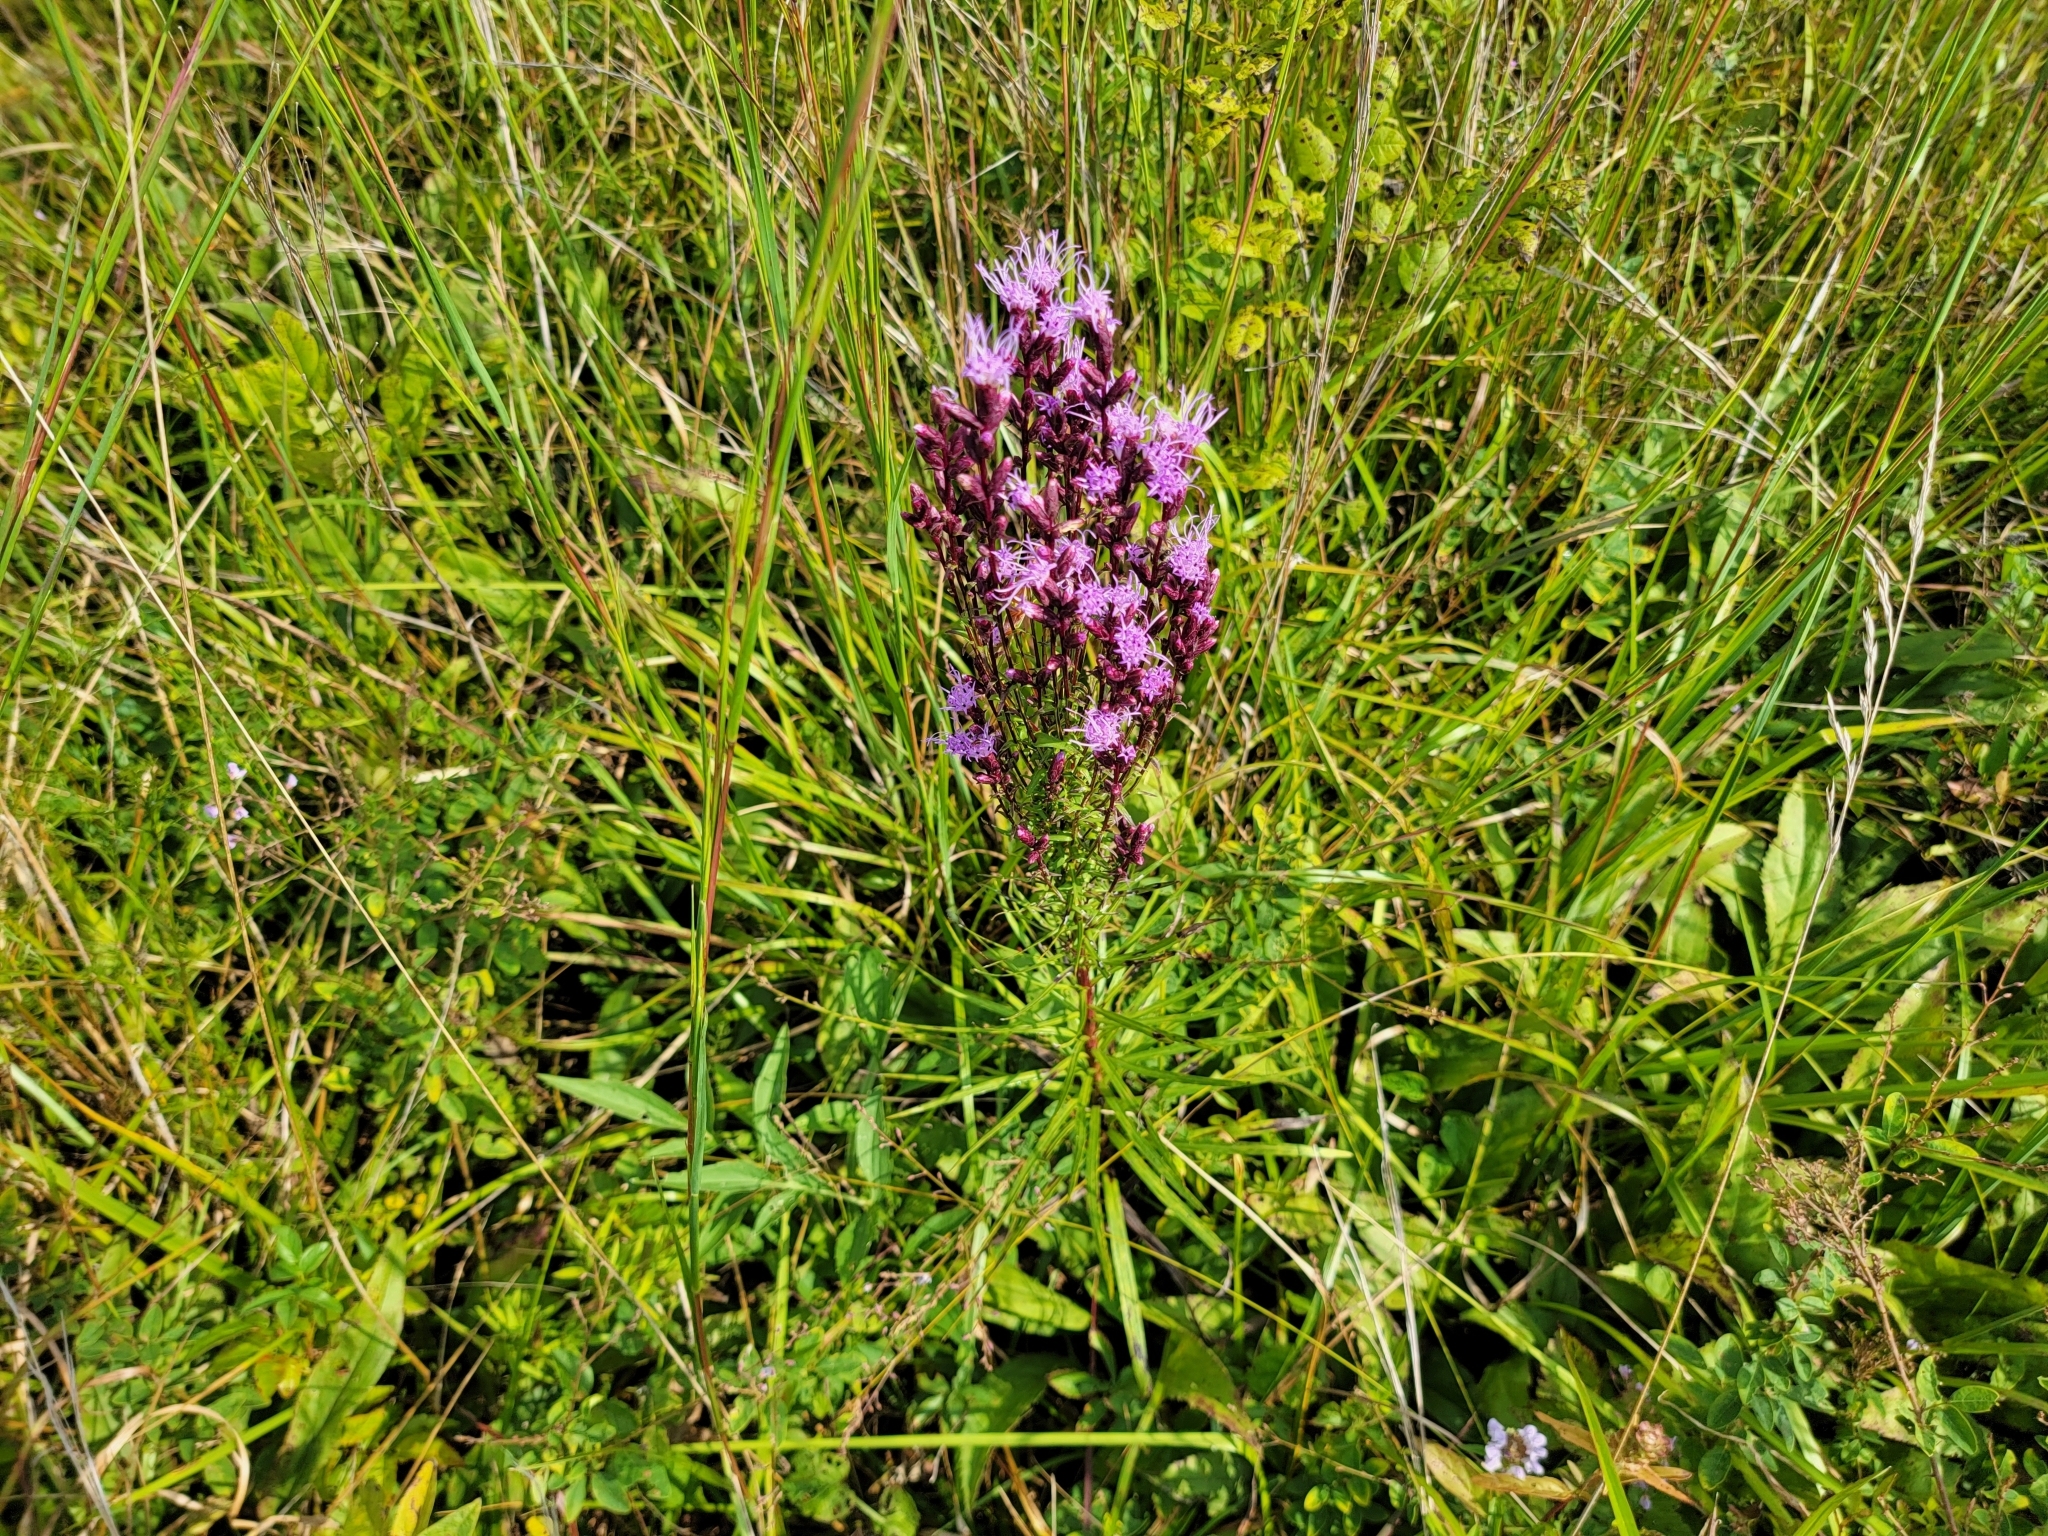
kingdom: Plantae
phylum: Tracheophyta
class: Magnoliopsida
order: Asterales
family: Asteraceae
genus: Liatris
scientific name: Liatris spicata
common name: Florist gayfeather
